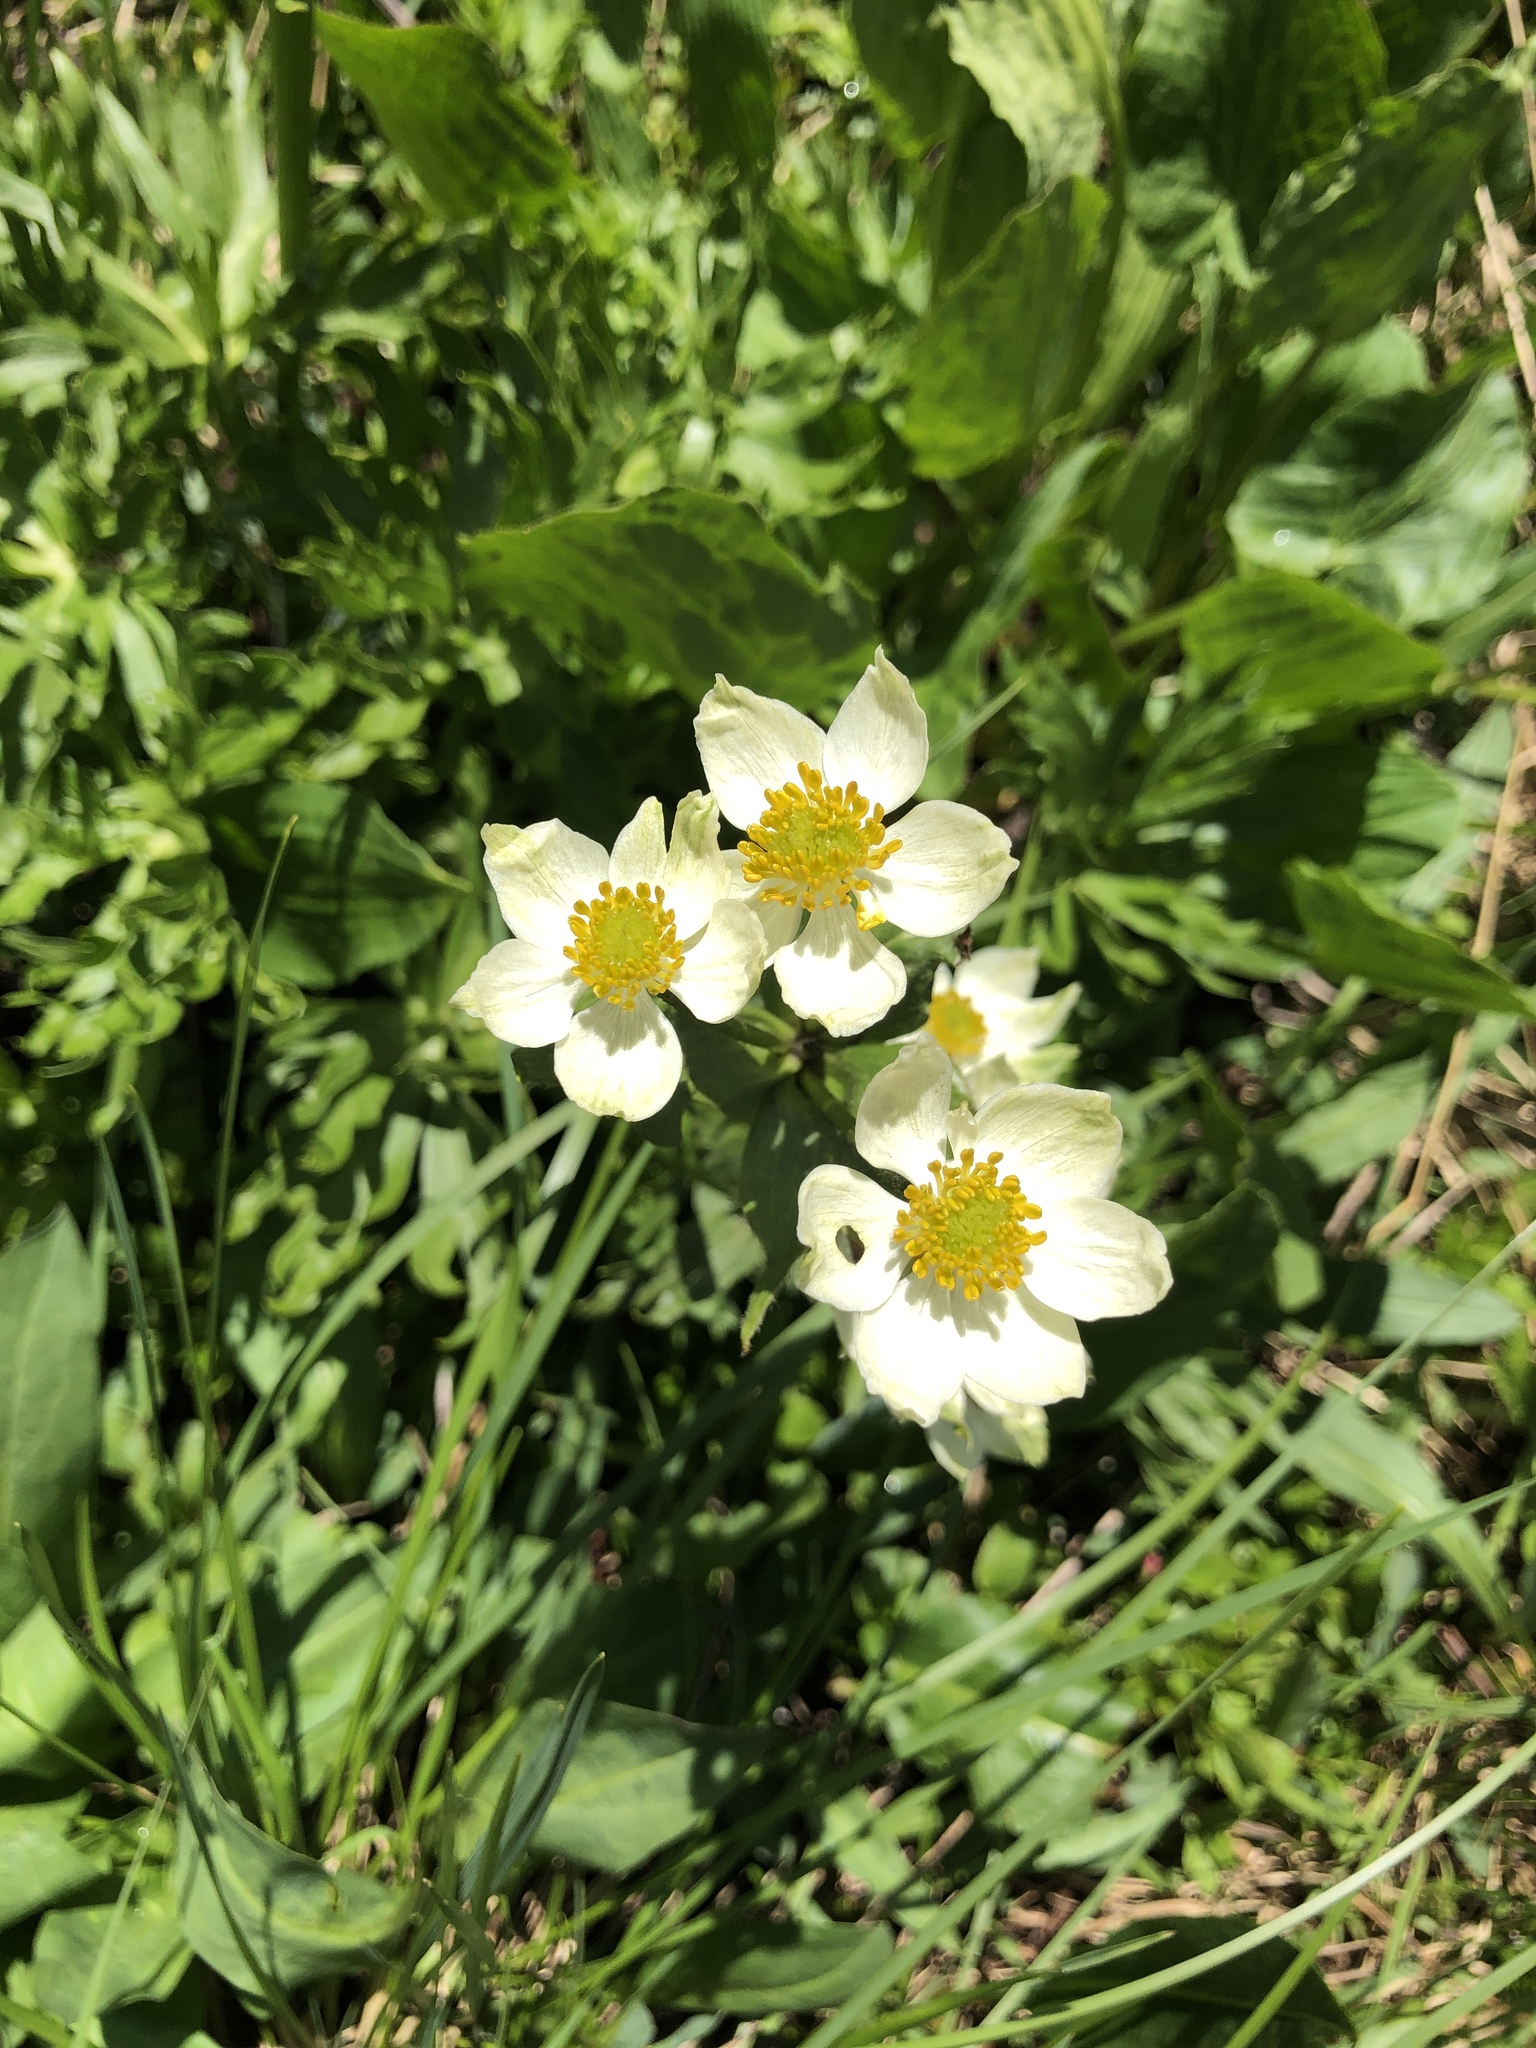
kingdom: Plantae
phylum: Tracheophyta
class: Magnoliopsida
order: Ranunculales
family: Ranunculaceae
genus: Anemonastrum
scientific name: Anemonastrum narcissiflorum
